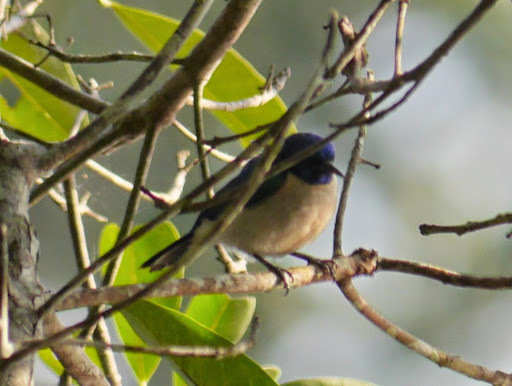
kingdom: Animalia
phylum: Chordata
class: Aves
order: Passeriformes
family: Nectariniidae
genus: Anthreptes
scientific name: Anthreptes aurantius
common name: Violet-tailed sunbird
